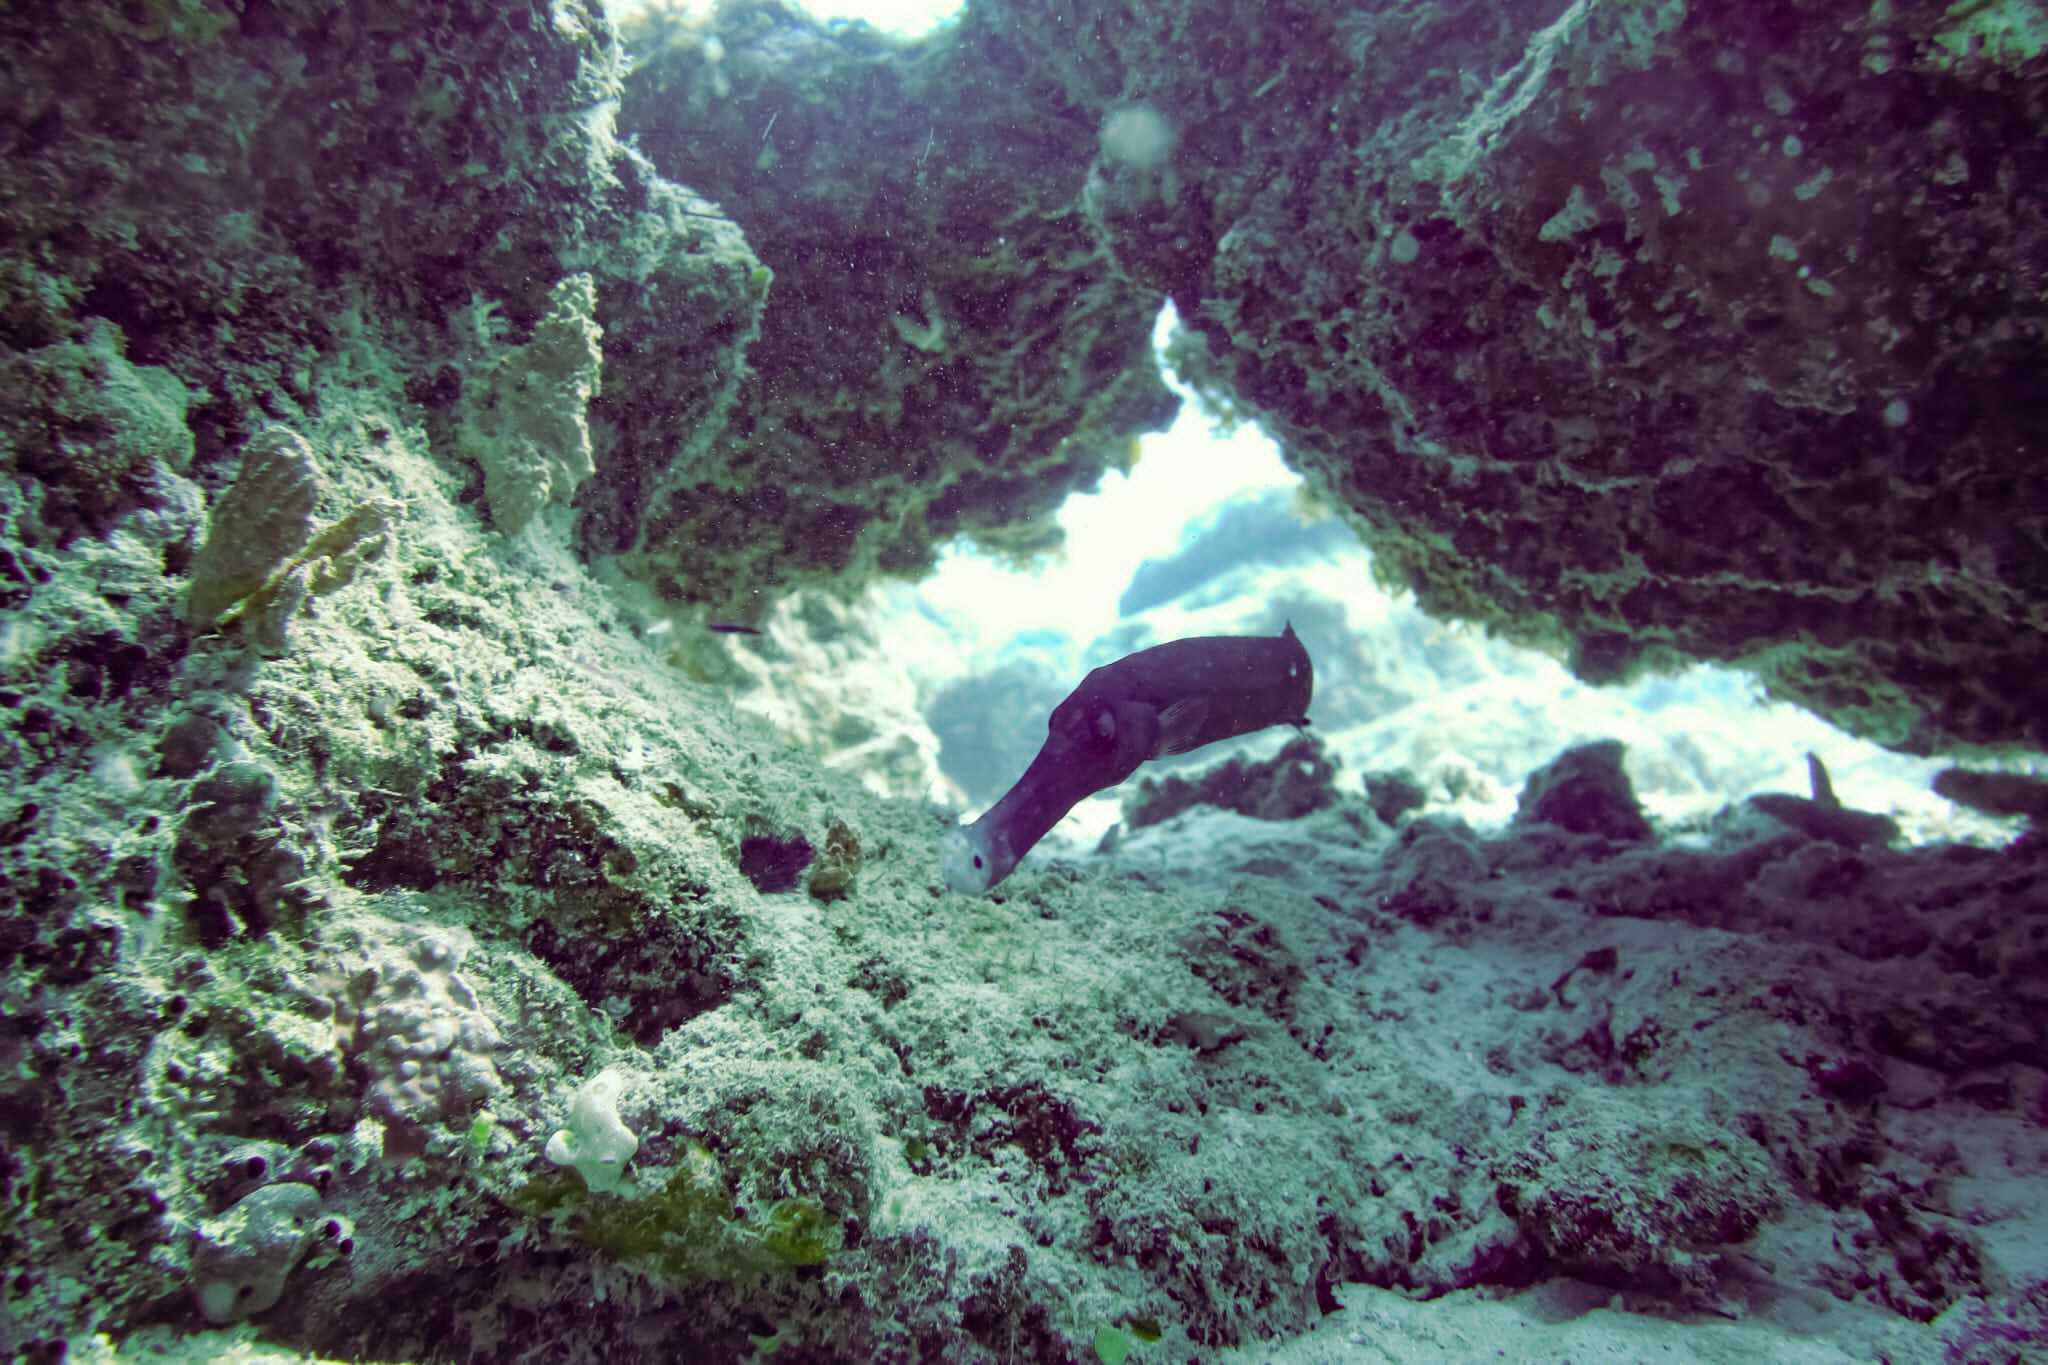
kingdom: Animalia
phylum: Chordata
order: Syngnathiformes
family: Aulostomidae
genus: Aulostomus
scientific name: Aulostomus chinensis
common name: Chinese trumpetfish
